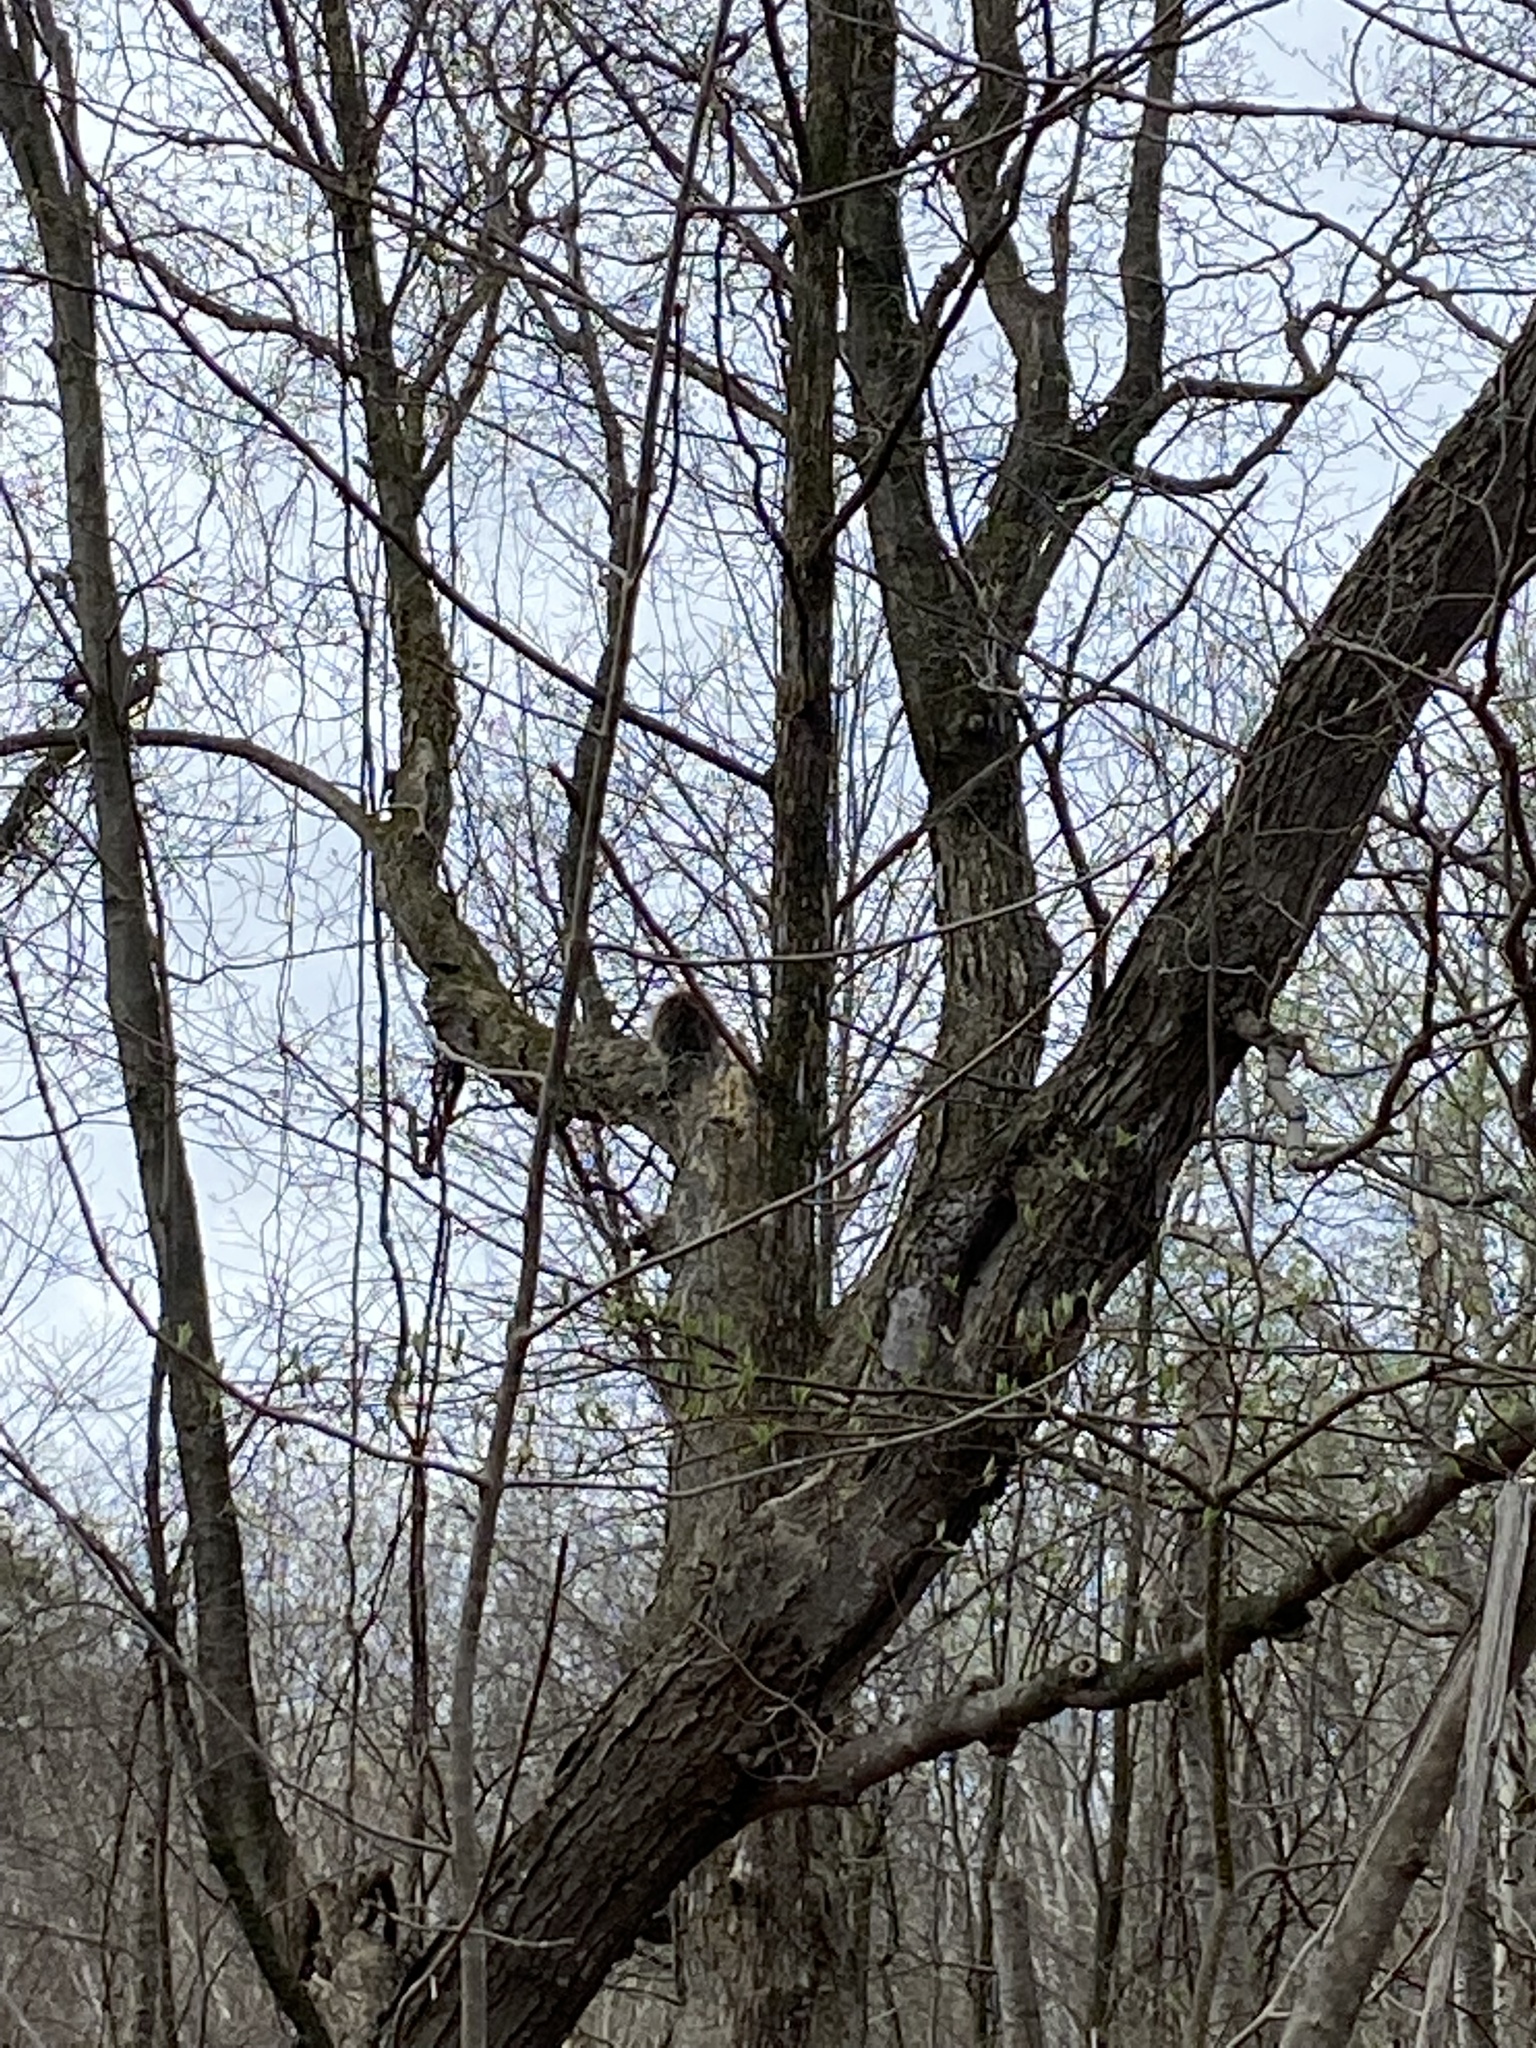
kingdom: Animalia
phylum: Chordata
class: Mammalia
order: Rodentia
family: Erethizontidae
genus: Erethizon
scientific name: Erethizon dorsatus
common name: North american porcupine
